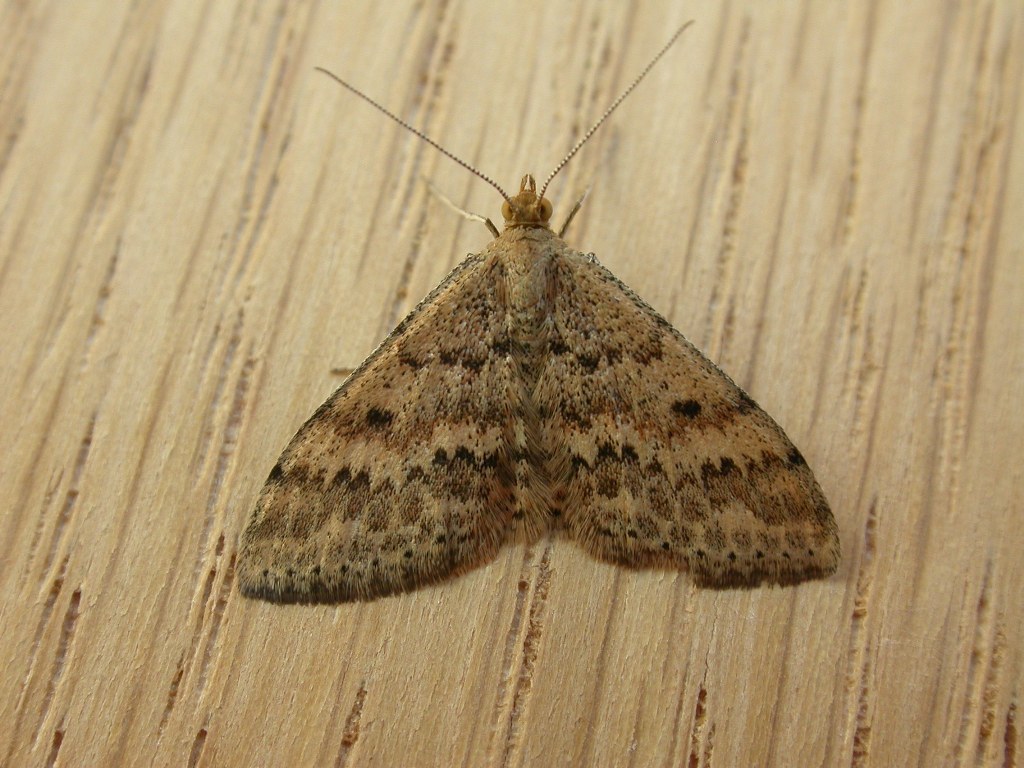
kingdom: Animalia
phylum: Arthropoda
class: Insecta
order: Lepidoptera
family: Geometridae
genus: Scopula
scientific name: Scopula rubraria
